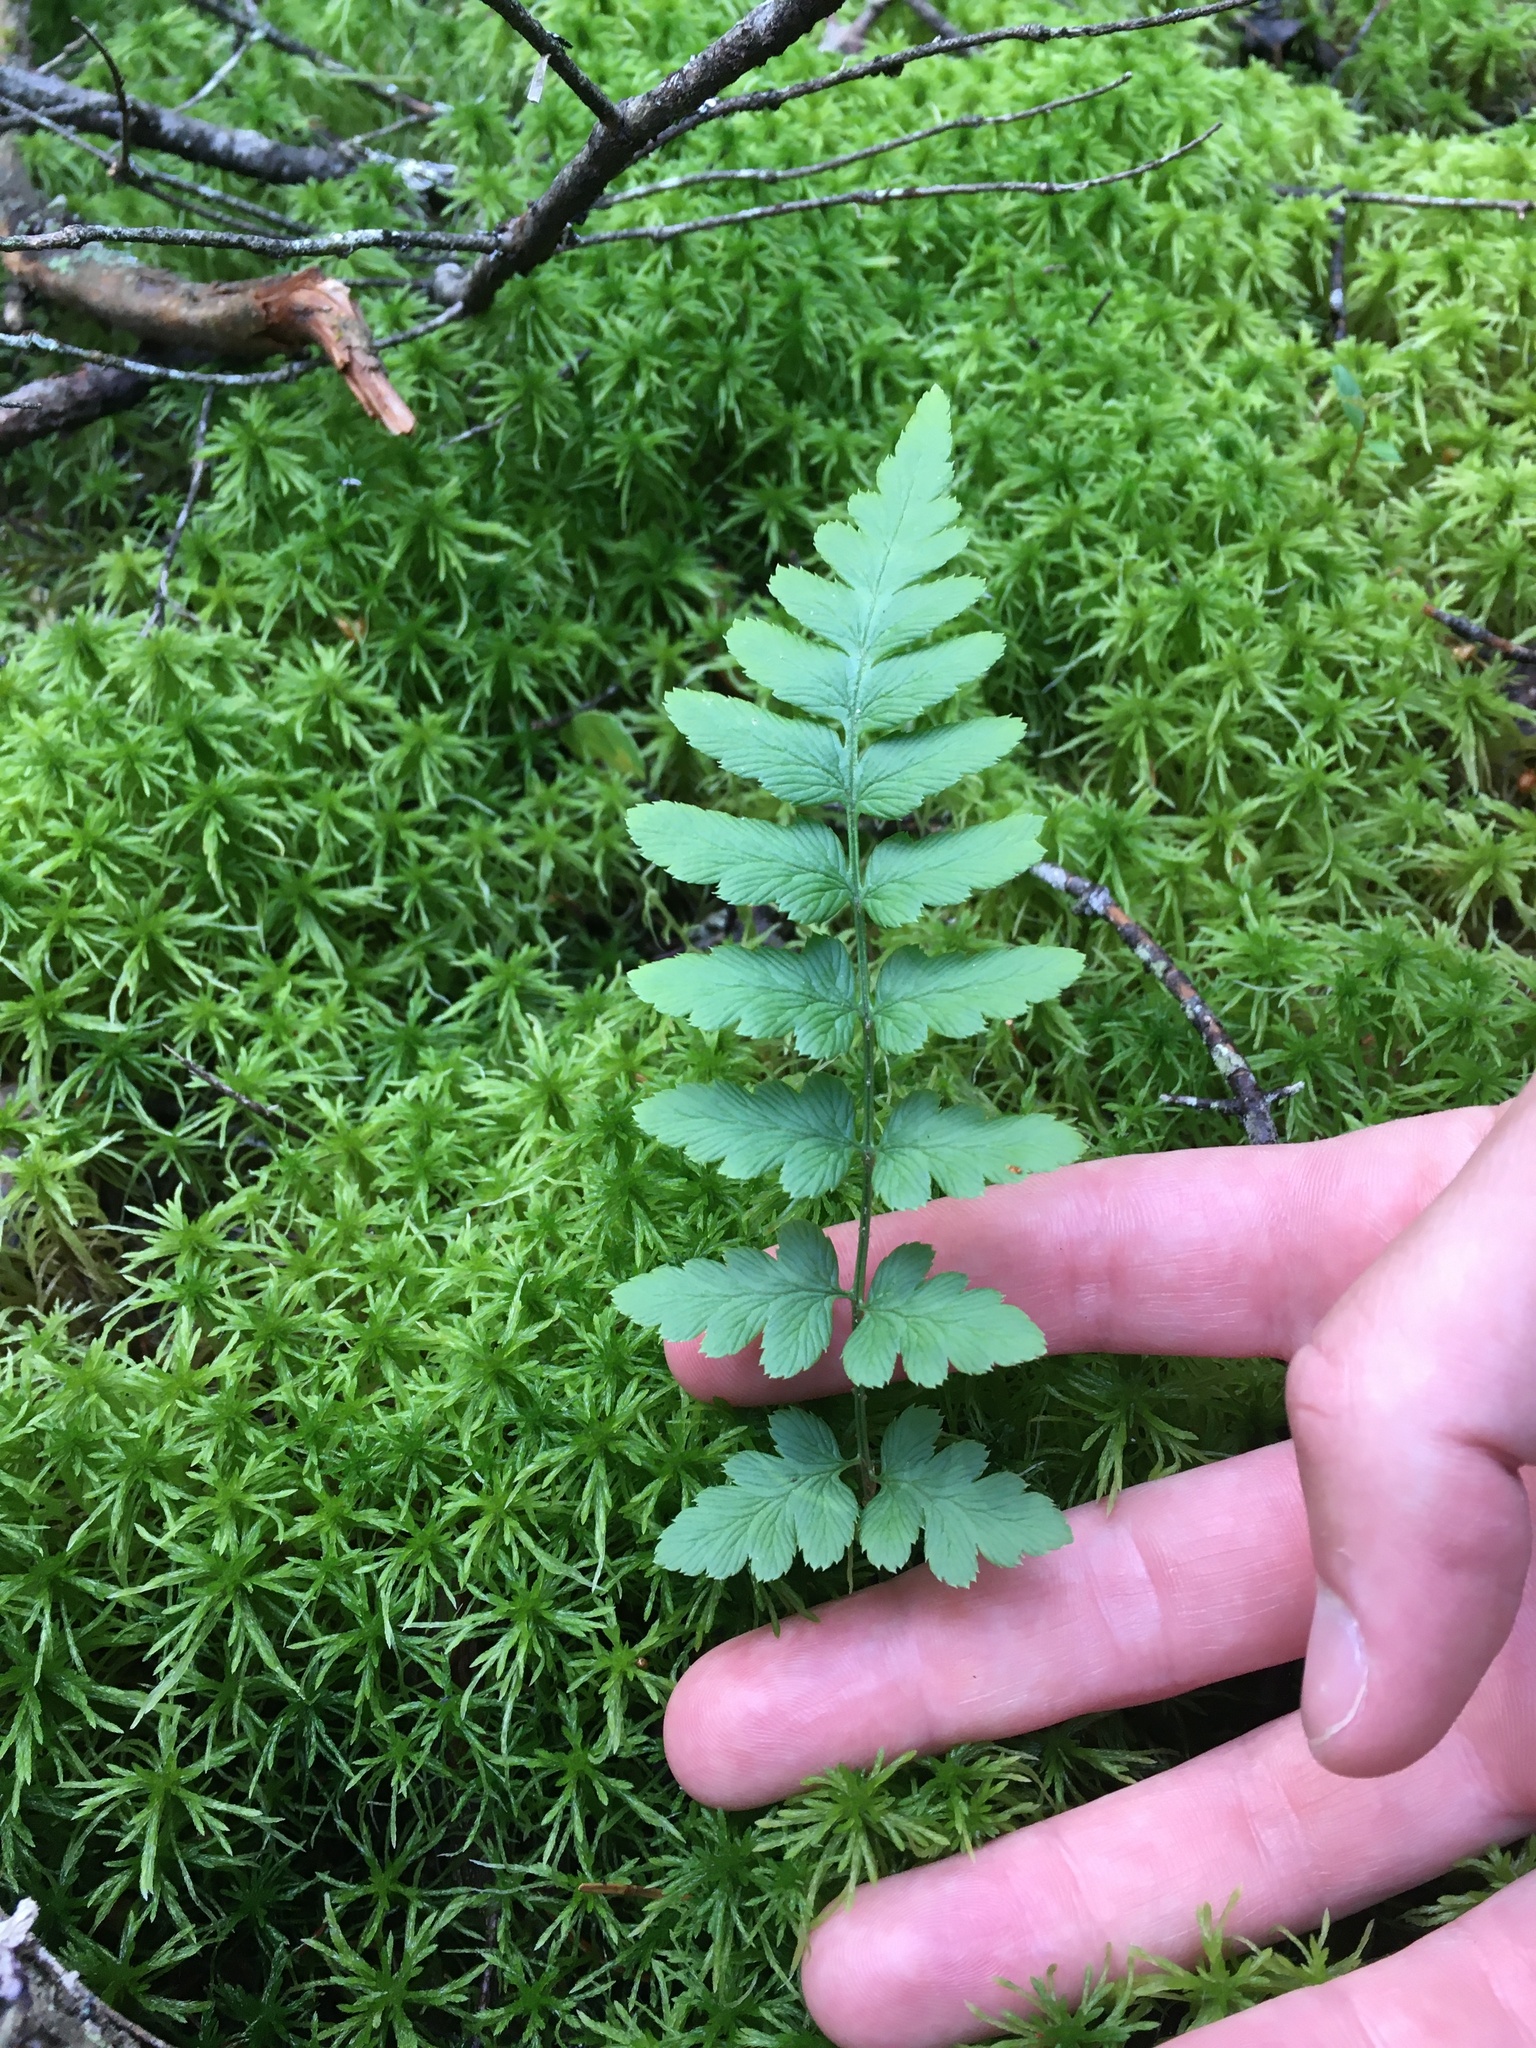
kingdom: Plantae
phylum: Tracheophyta
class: Polypodiopsida
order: Polypodiales
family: Dryopteridaceae
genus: Dryopteris
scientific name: Dryopteris cristata
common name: Crested wood fern
